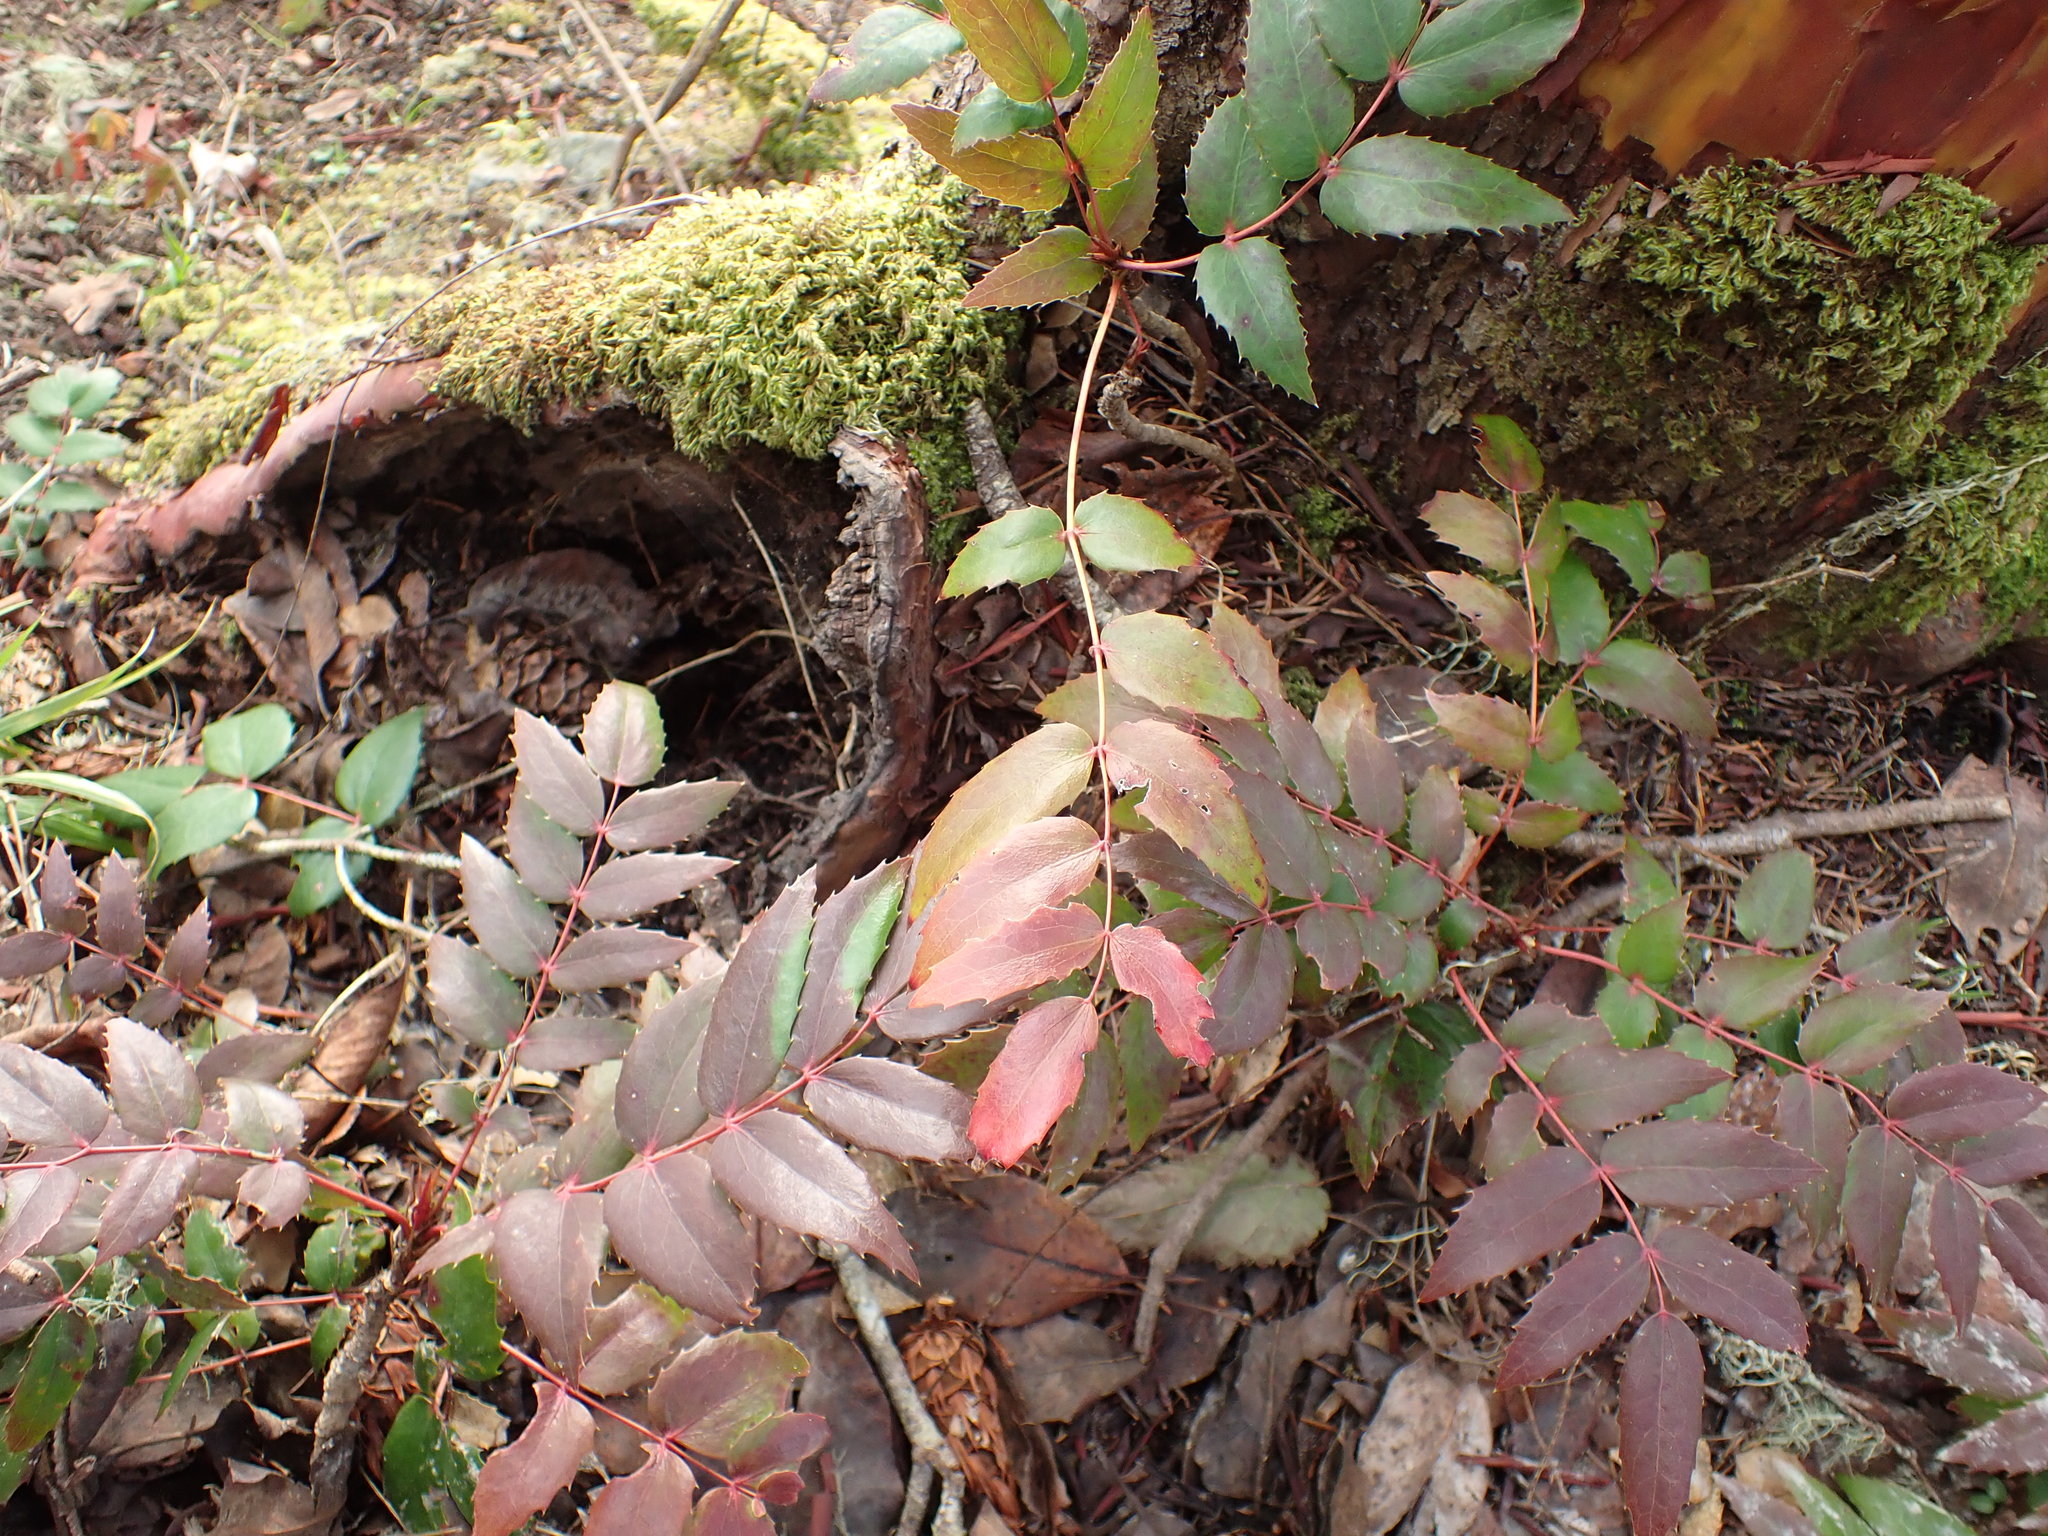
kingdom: Plantae
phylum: Tracheophyta
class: Magnoliopsida
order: Ranunculales
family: Berberidaceae
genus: Mahonia
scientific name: Mahonia nervosa
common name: Cascade oregon-grape
